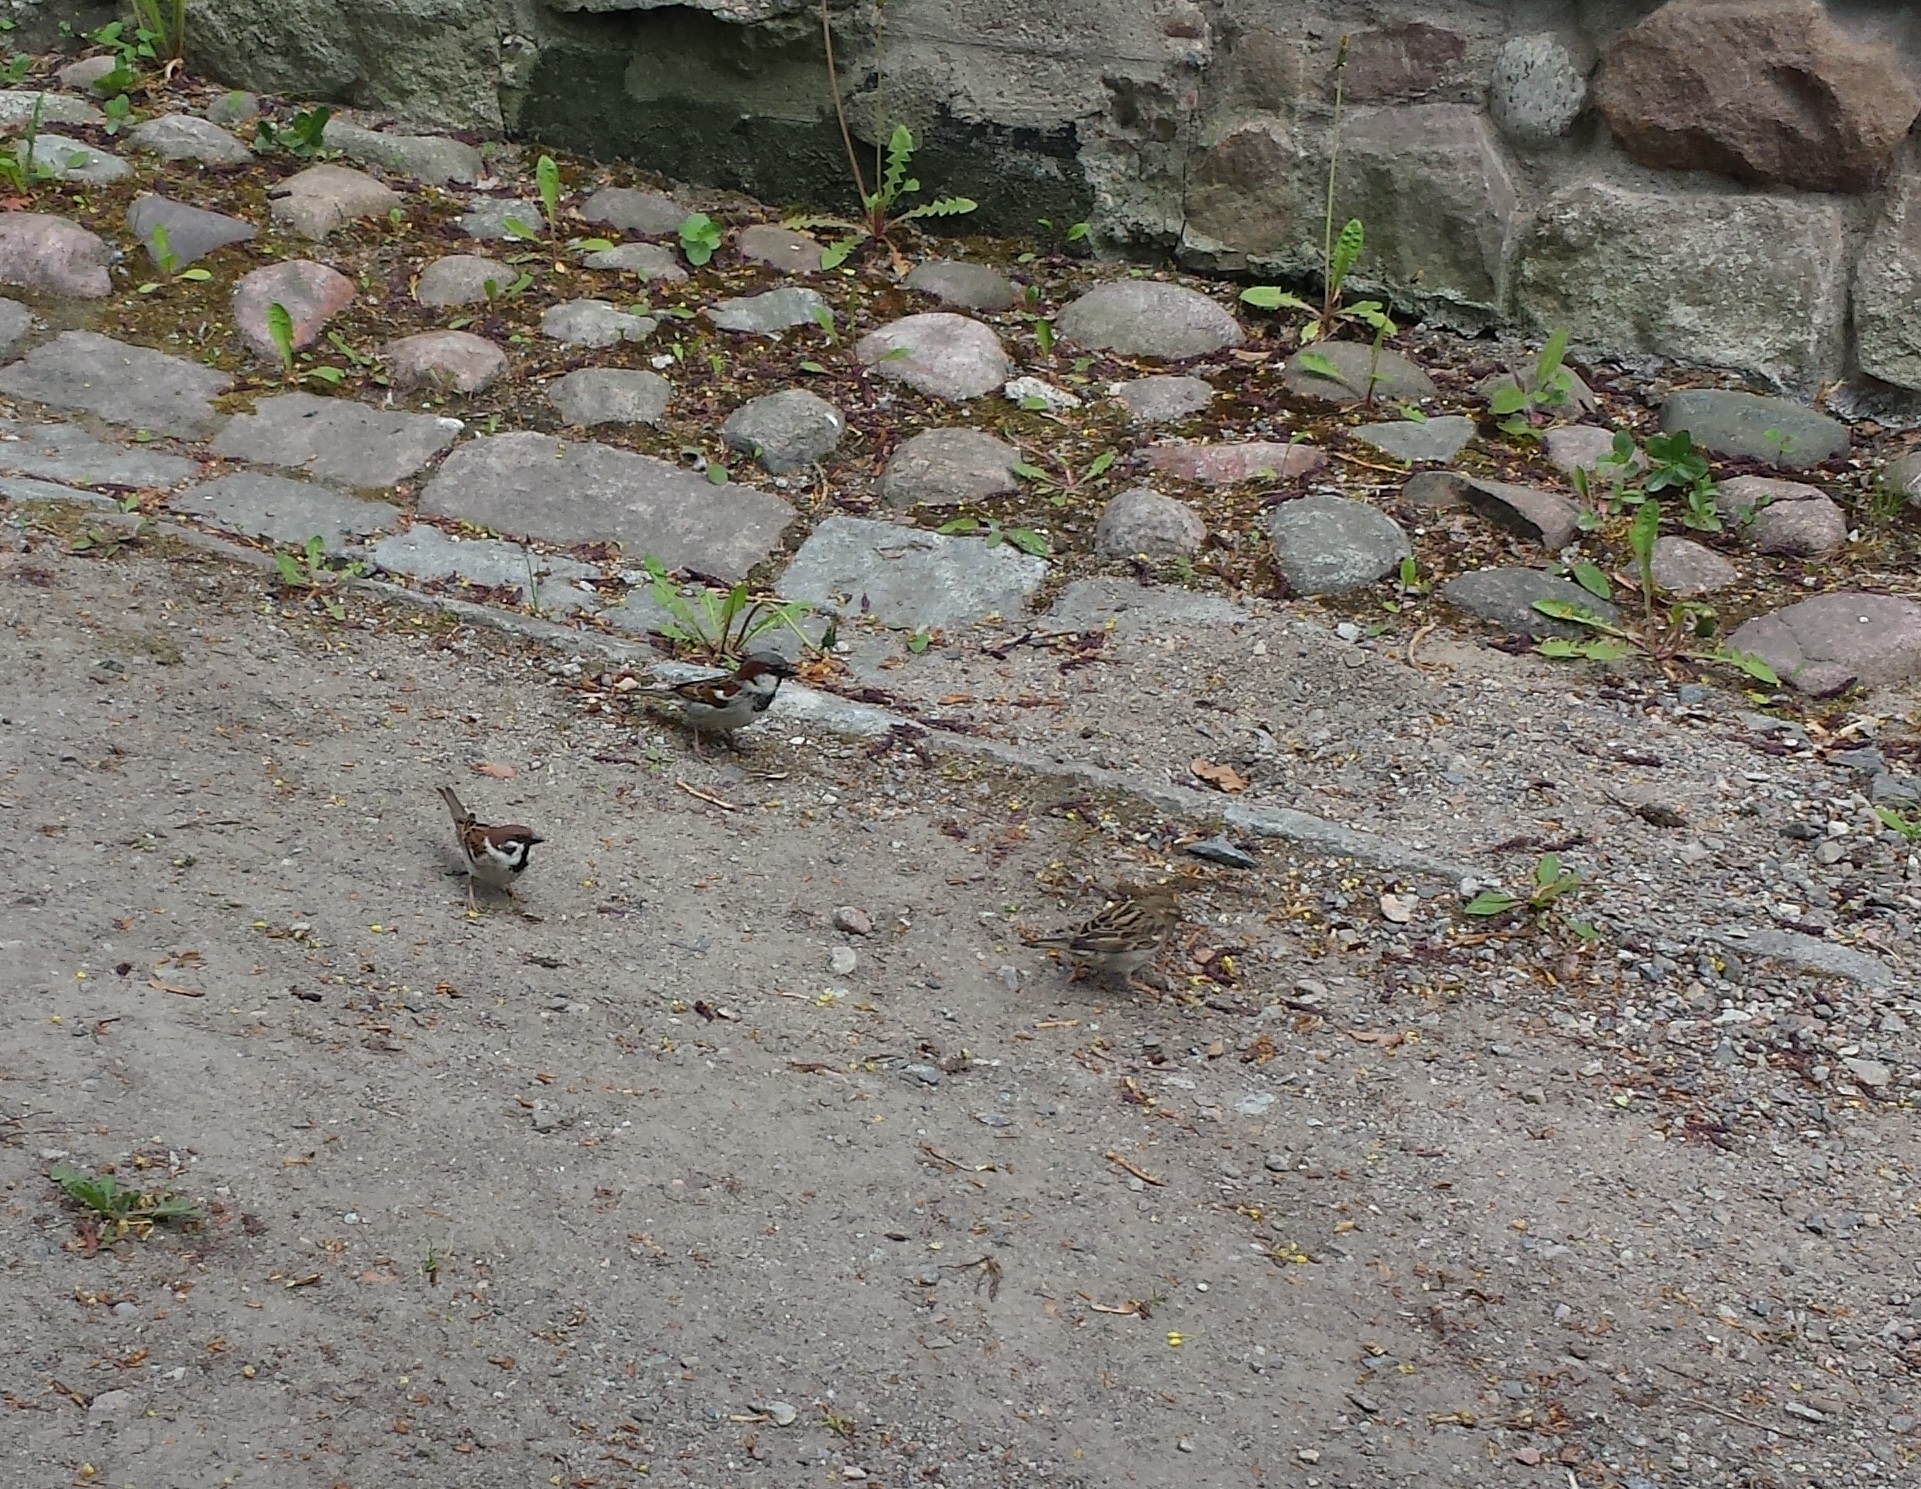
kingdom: Animalia
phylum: Chordata
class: Aves
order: Passeriformes
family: Passeridae
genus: Passer
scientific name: Passer domesticus
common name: House sparrow
